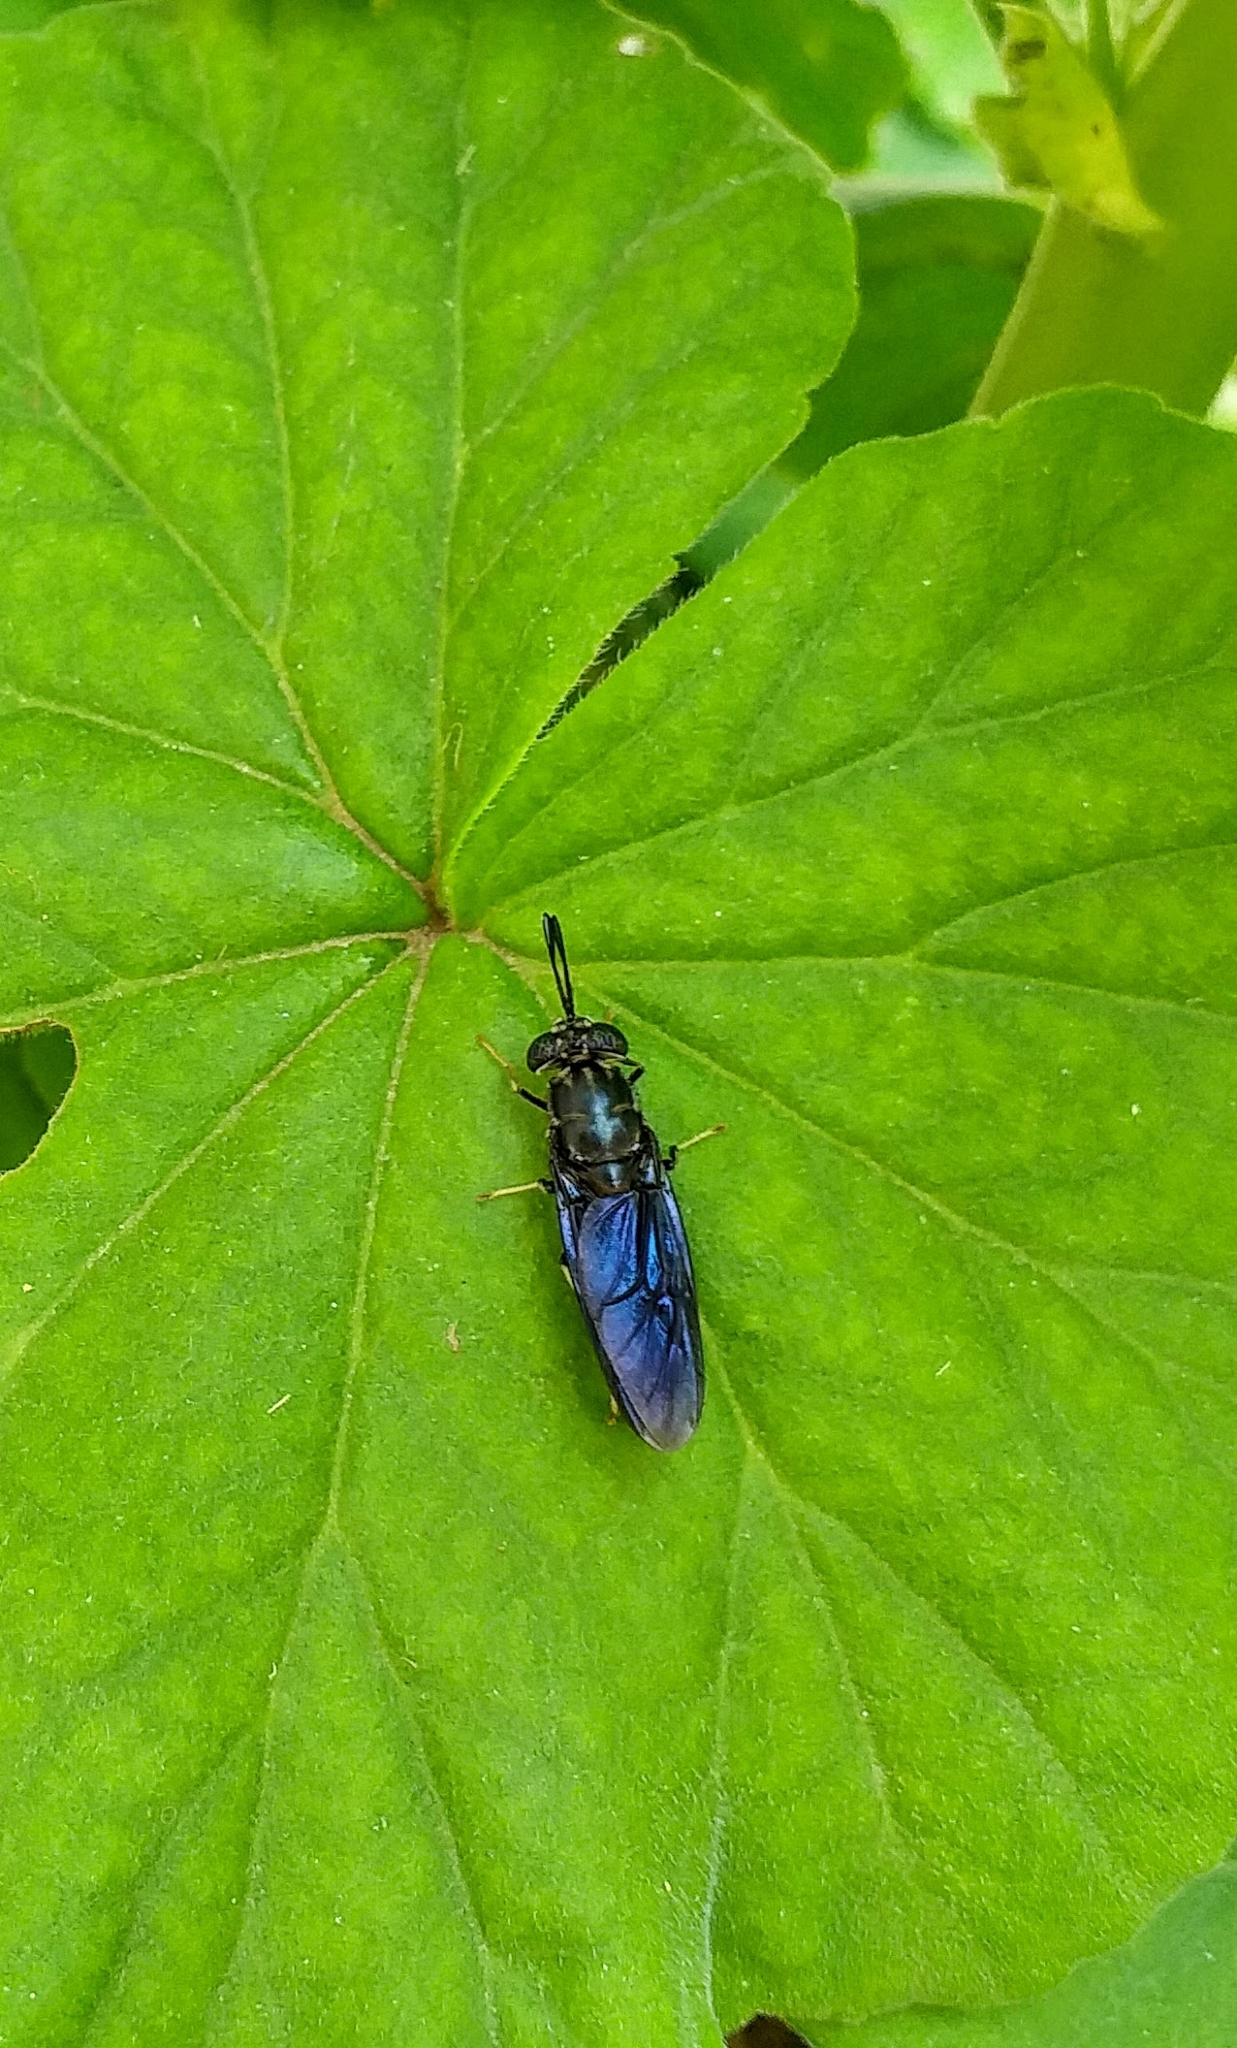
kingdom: Animalia
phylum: Arthropoda
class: Insecta
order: Diptera
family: Stratiomyidae
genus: Hermetia
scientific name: Hermetia illucens
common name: Black soldier fly
